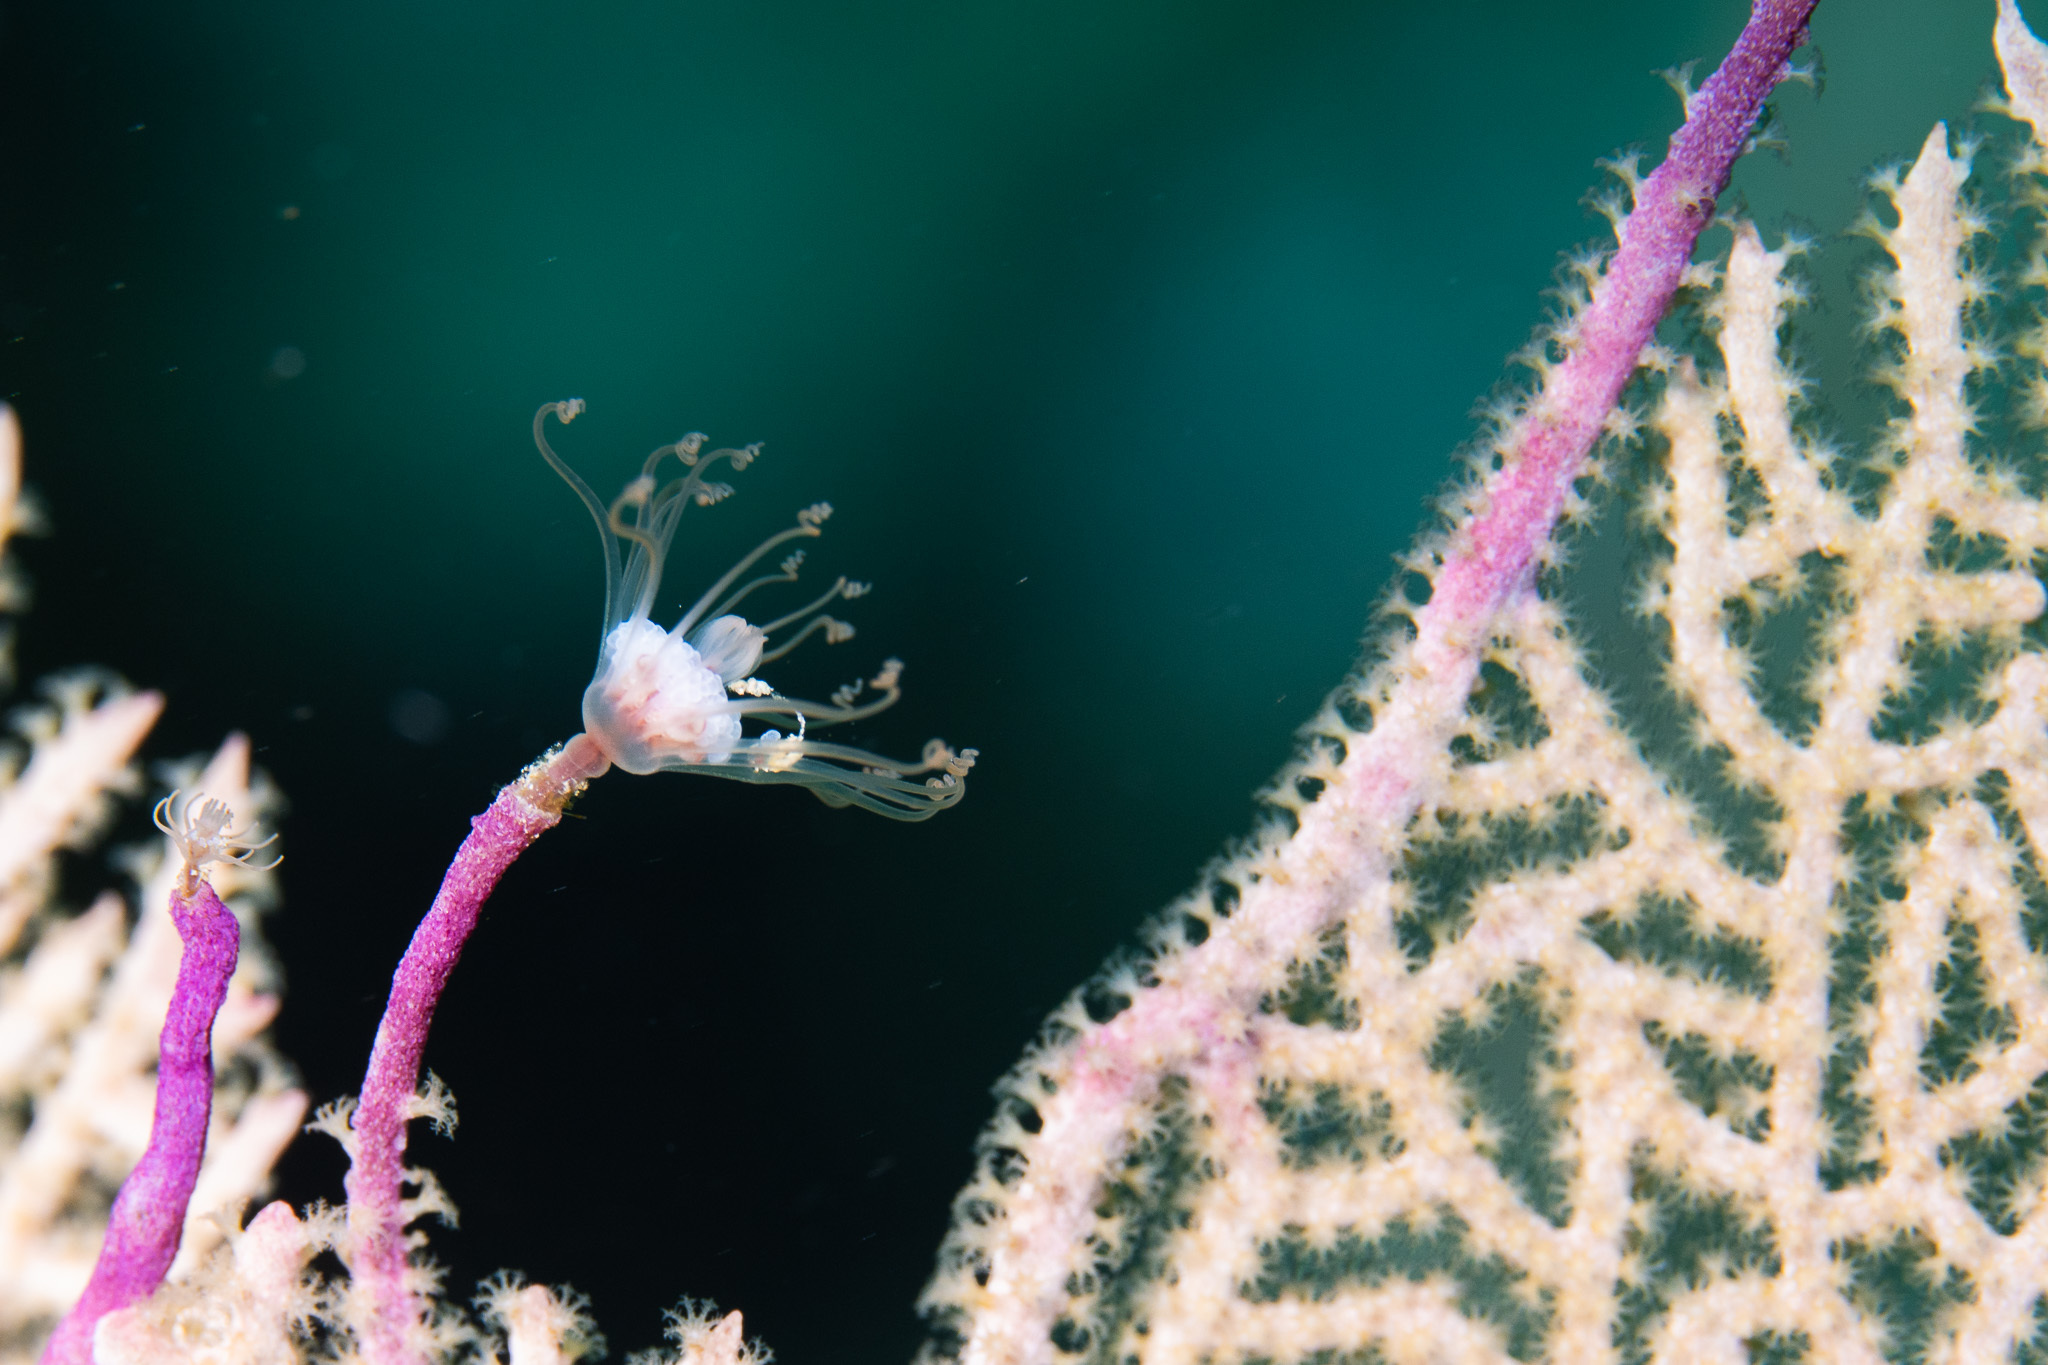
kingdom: Animalia
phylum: Cnidaria
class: Hydrozoa
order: Anthoathecata
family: Tubulariidae
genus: Ralpharia
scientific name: Ralpharia gorgoniae
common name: Solitary gorgonian hydroid
